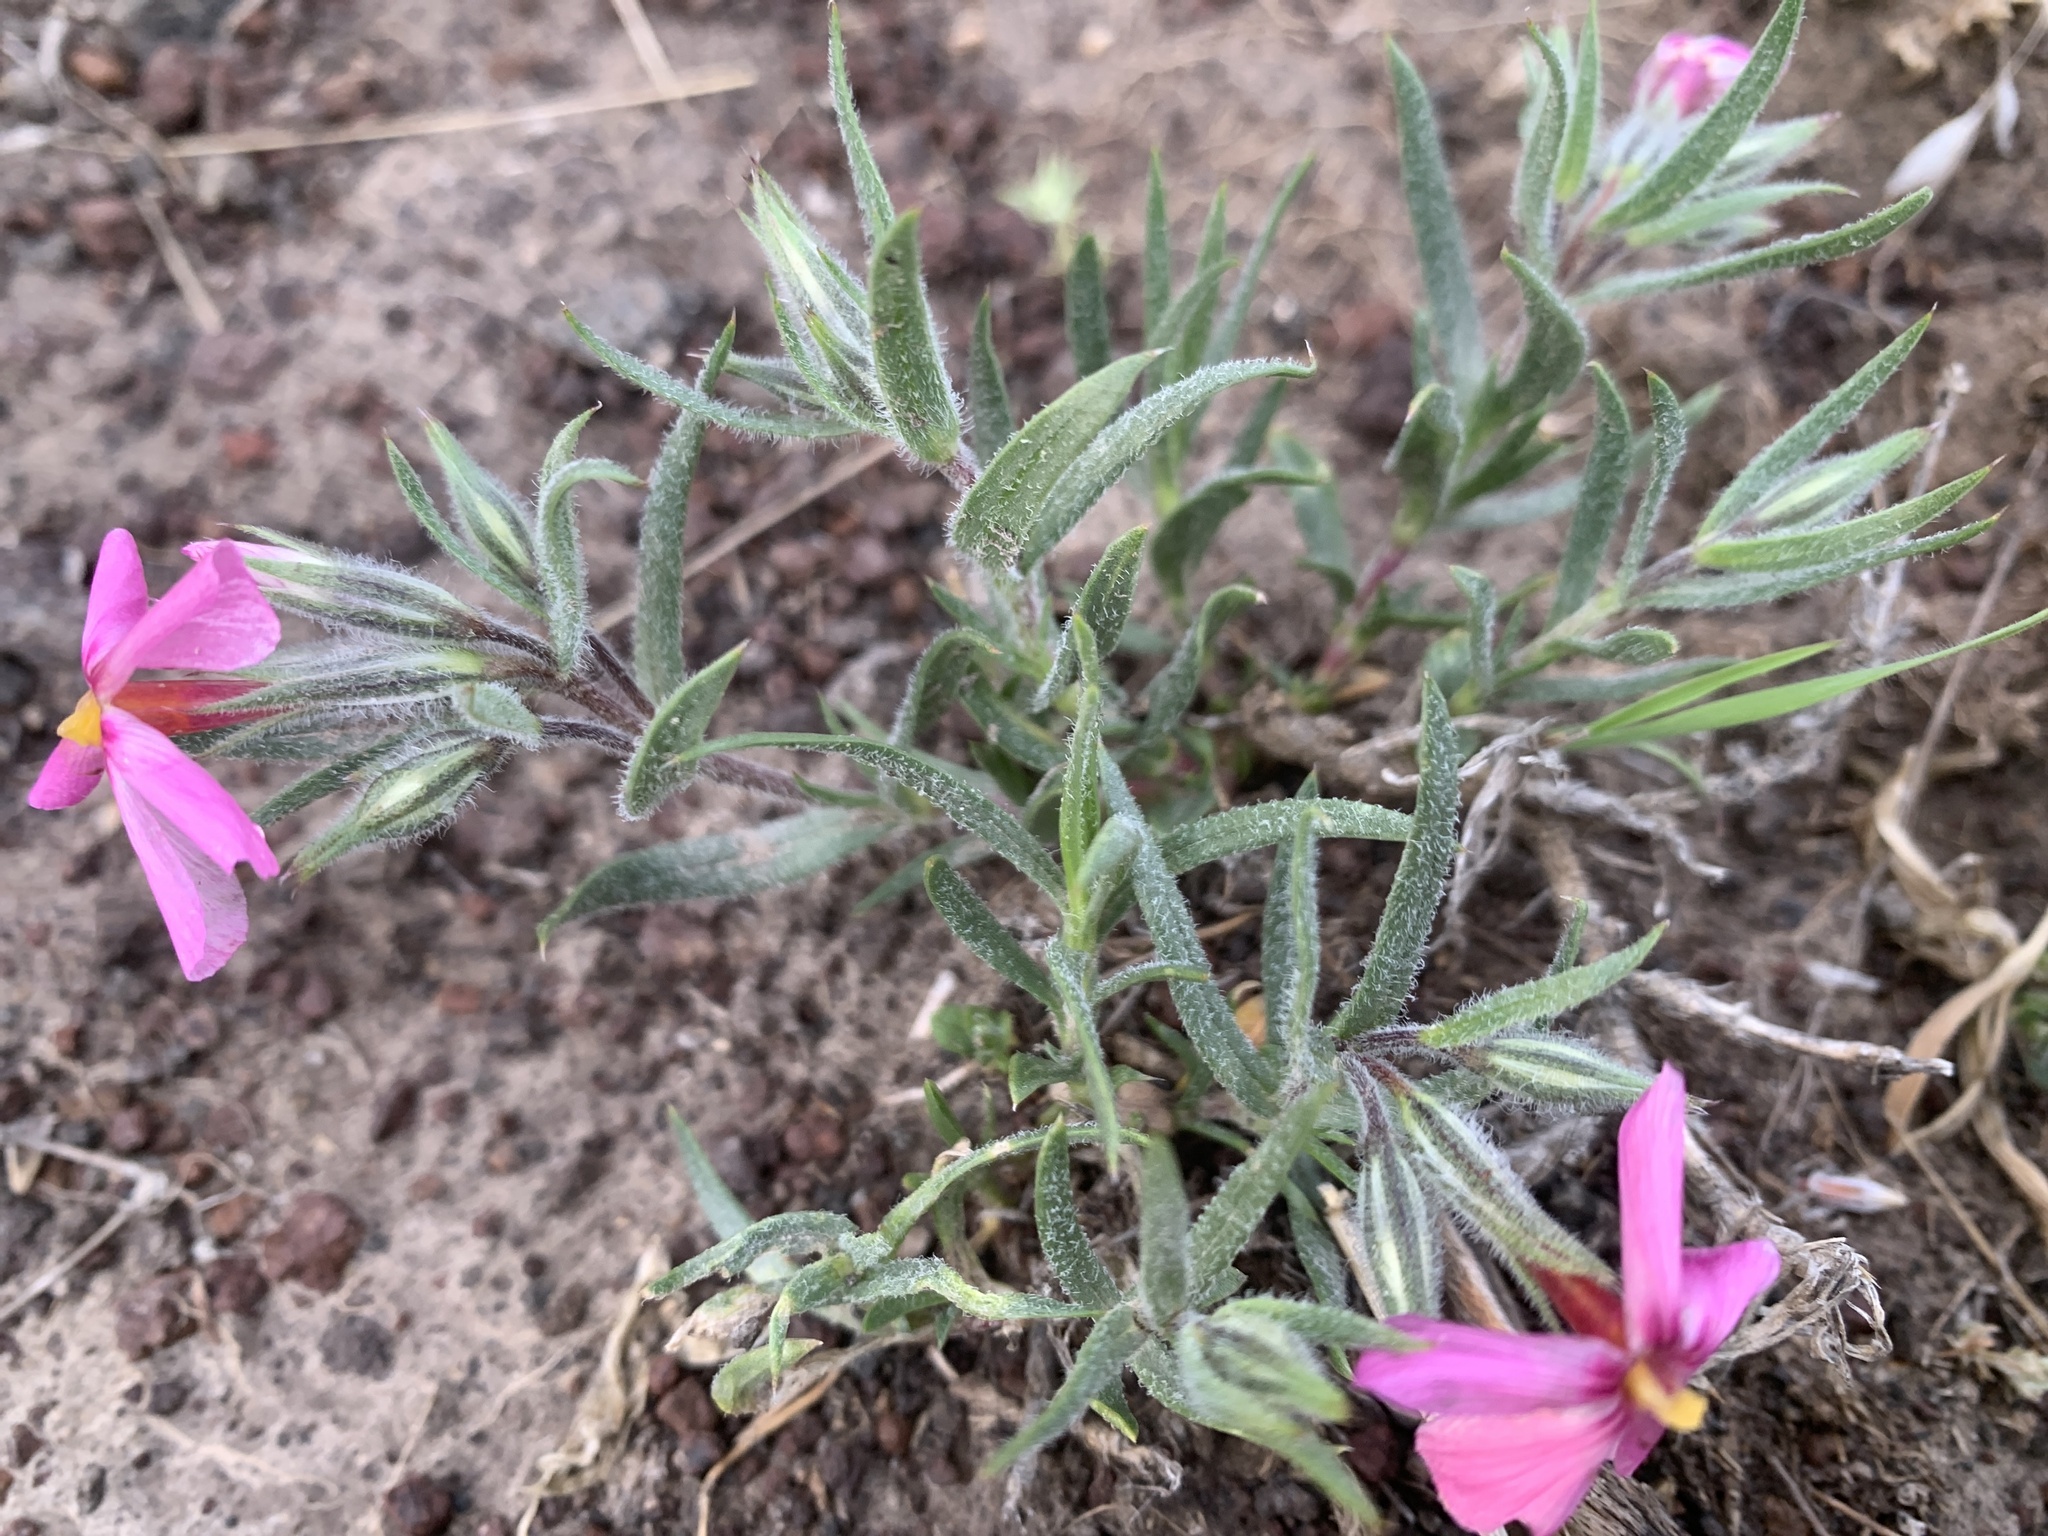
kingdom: Plantae
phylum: Tracheophyta
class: Magnoliopsida
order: Ericales
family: Polemoniaceae
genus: Phlox
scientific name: Phlox longifolia
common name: Longleaf phlox
